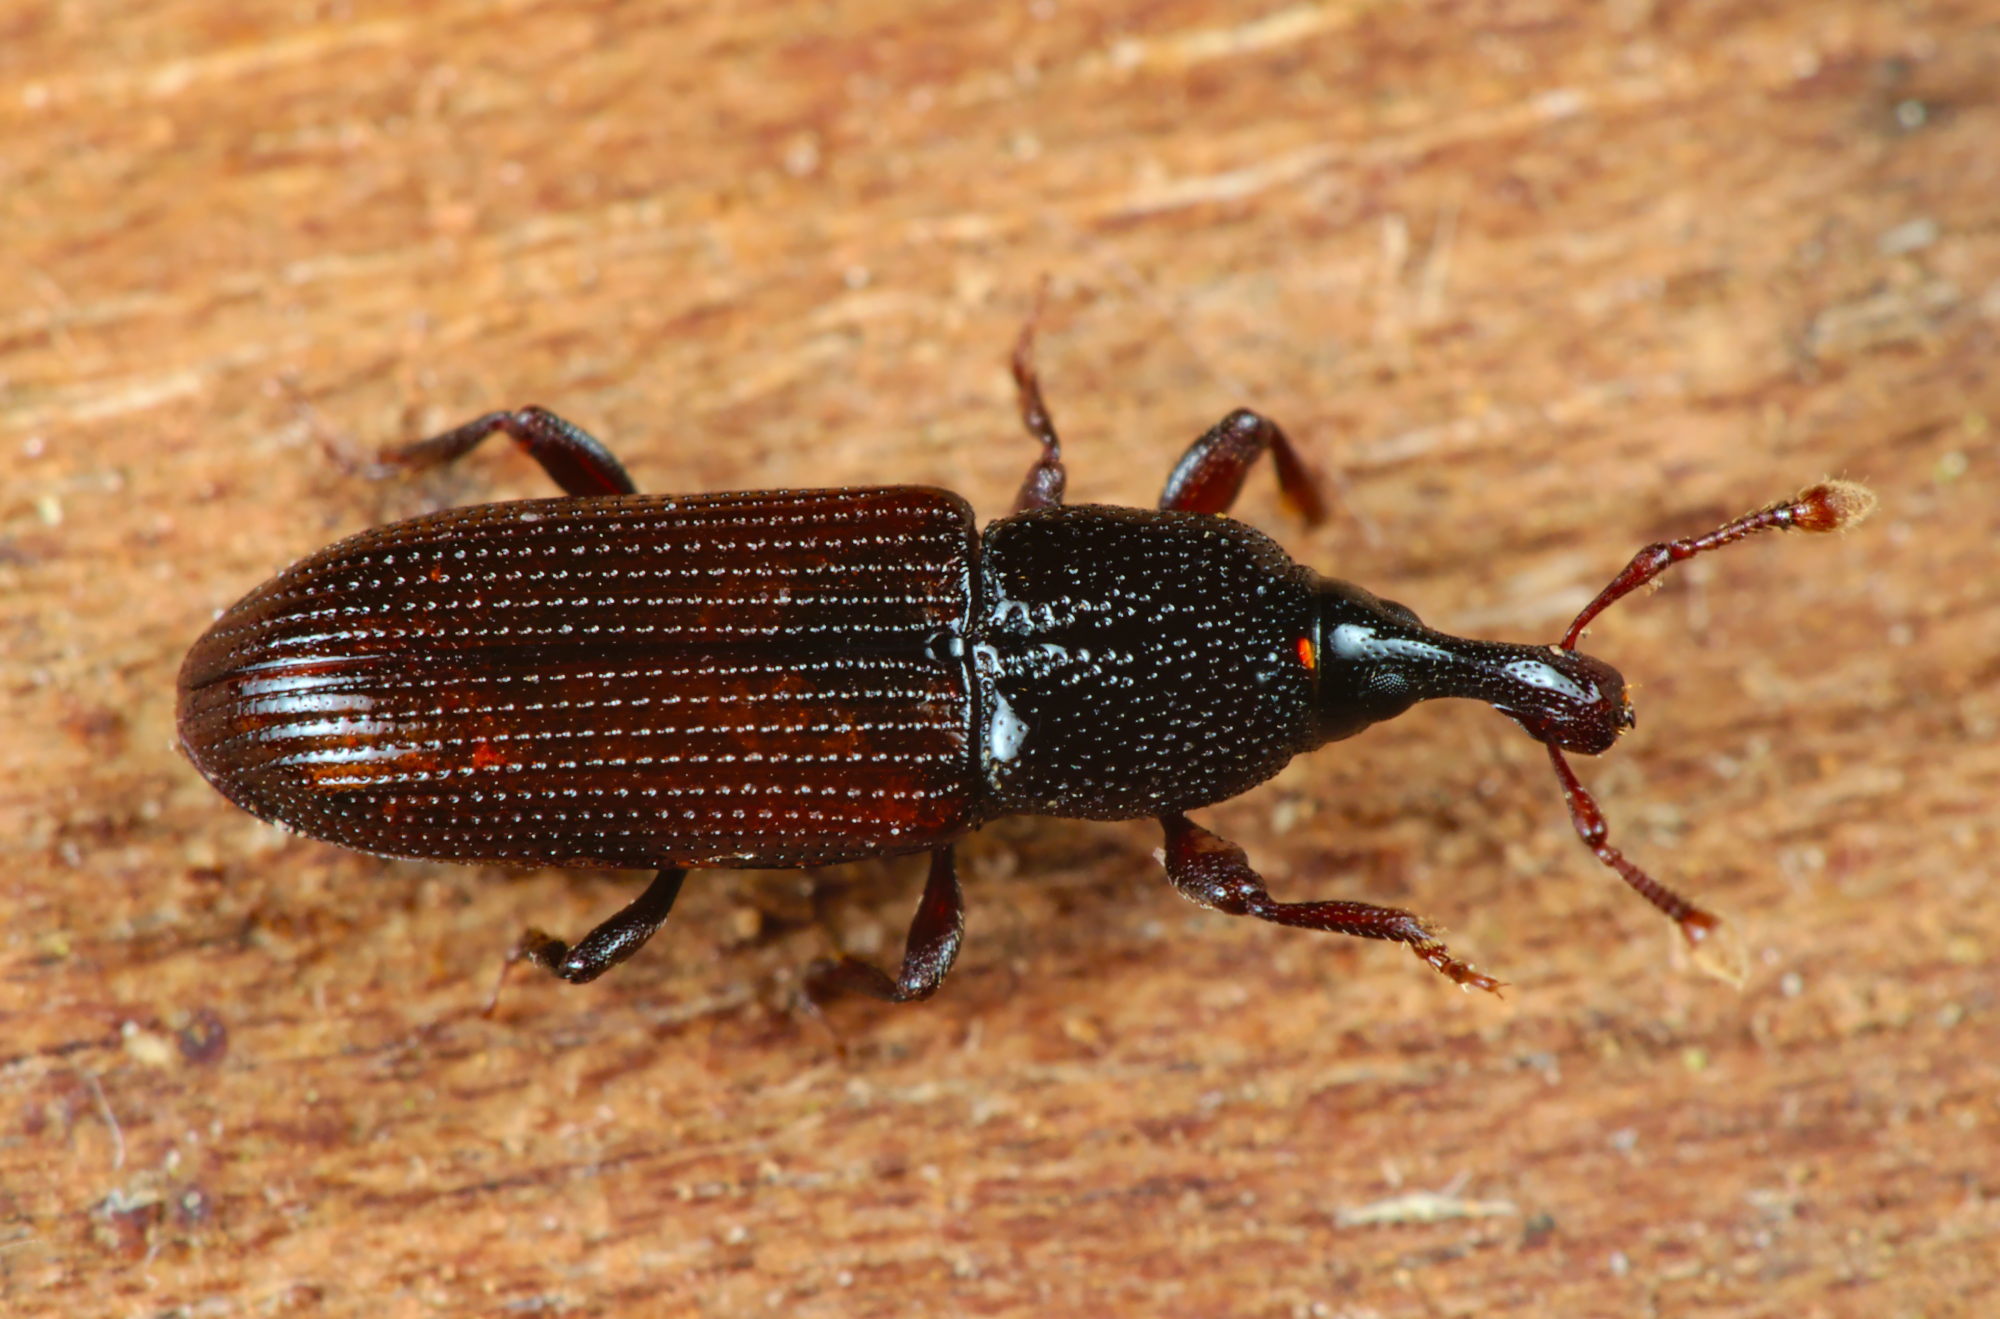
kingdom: Animalia
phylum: Arthropoda
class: Insecta
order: Coleoptera
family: Curculionidae
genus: Cossonus
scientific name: Cossonus linearis
